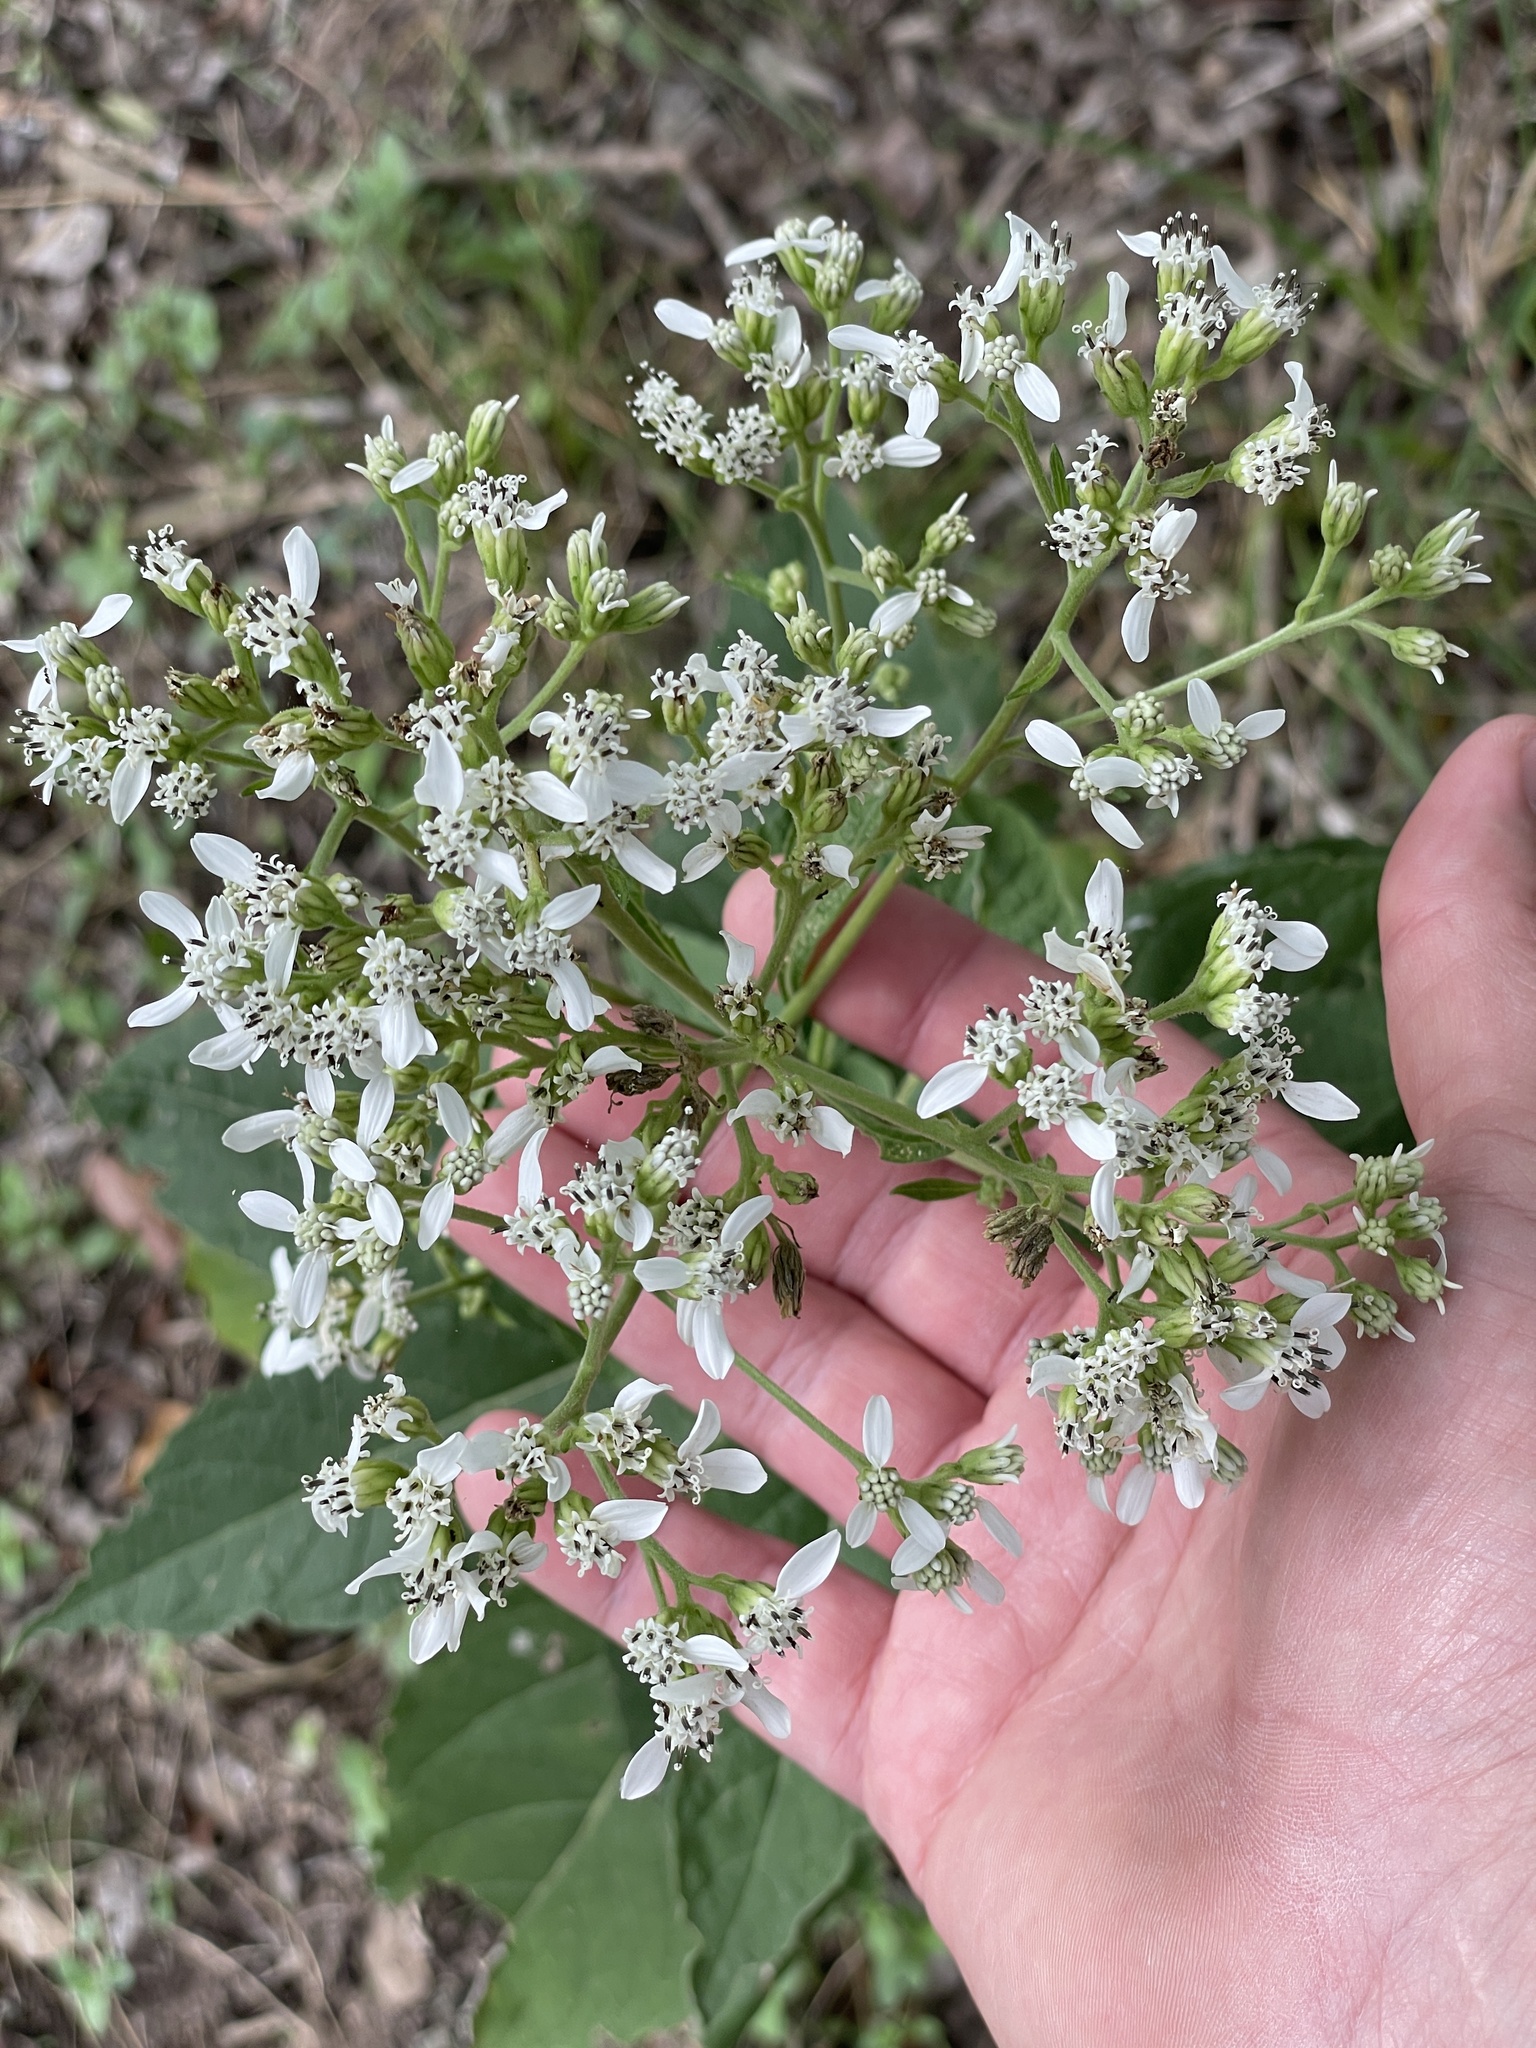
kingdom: Plantae
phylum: Tracheophyta
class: Magnoliopsida
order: Asterales
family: Asteraceae
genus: Verbesina
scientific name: Verbesina virginica
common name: Frostweed
